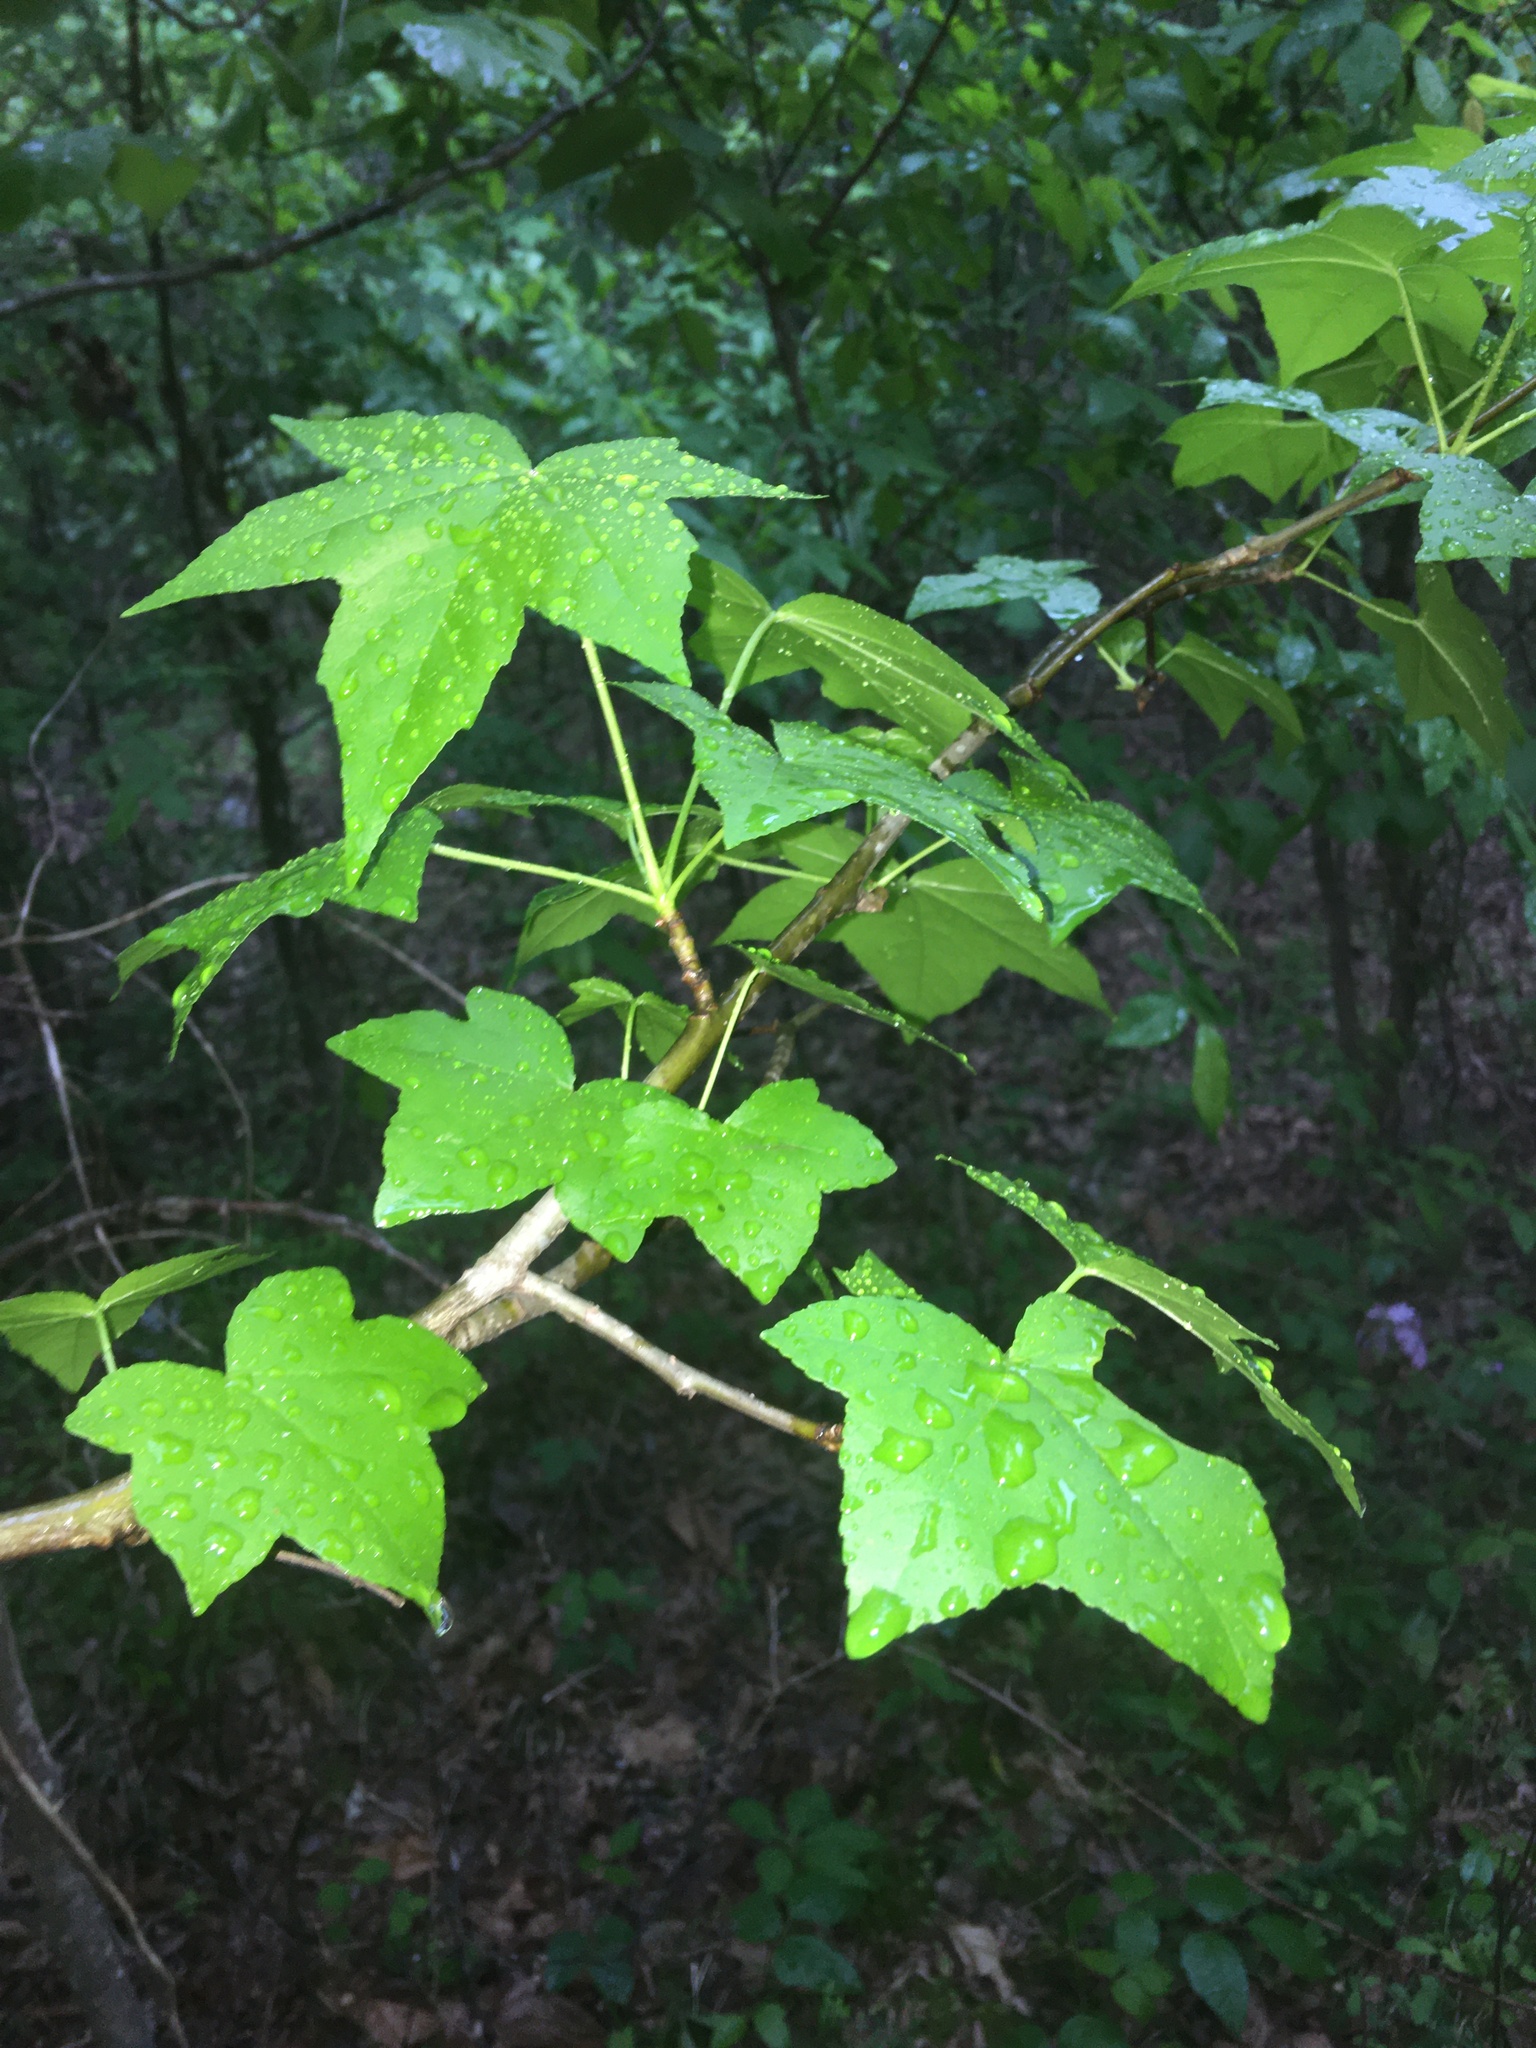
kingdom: Plantae
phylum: Tracheophyta
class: Magnoliopsida
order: Saxifragales
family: Altingiaceae
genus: Liquidambar
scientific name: Liquidambar styraciflua
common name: Sweet gum
